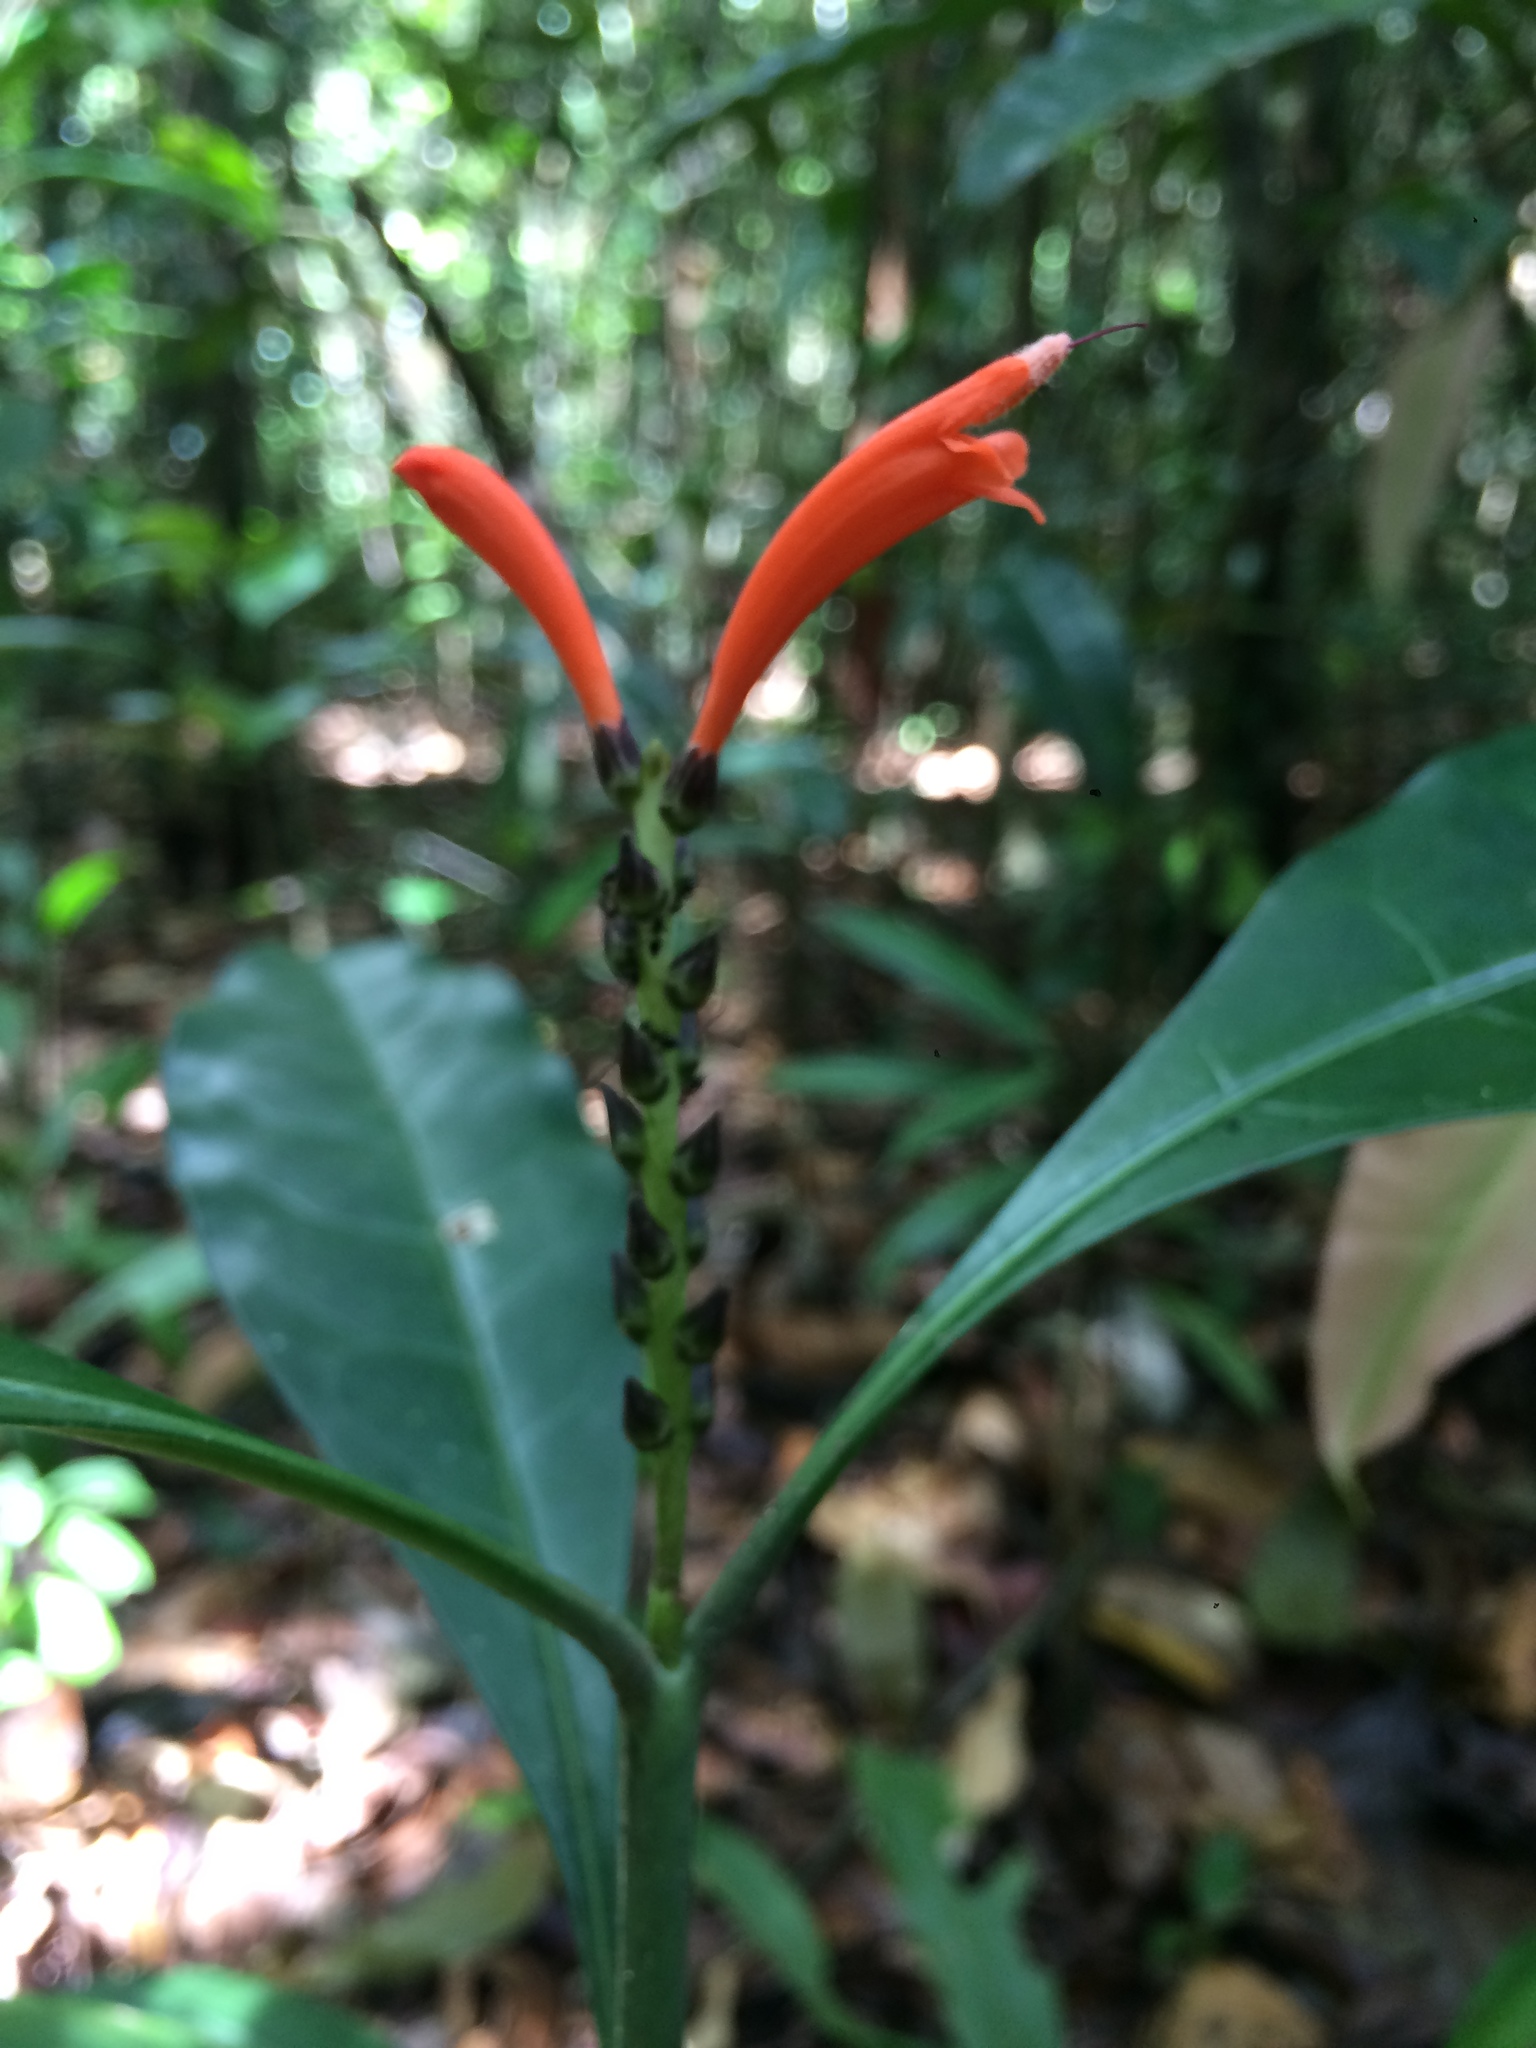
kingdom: Plantae
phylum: Tracheophyta
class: Magnoliopsida
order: Lamiales
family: Acanthaceae
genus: Aphelandra
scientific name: Aphelandra nitida
